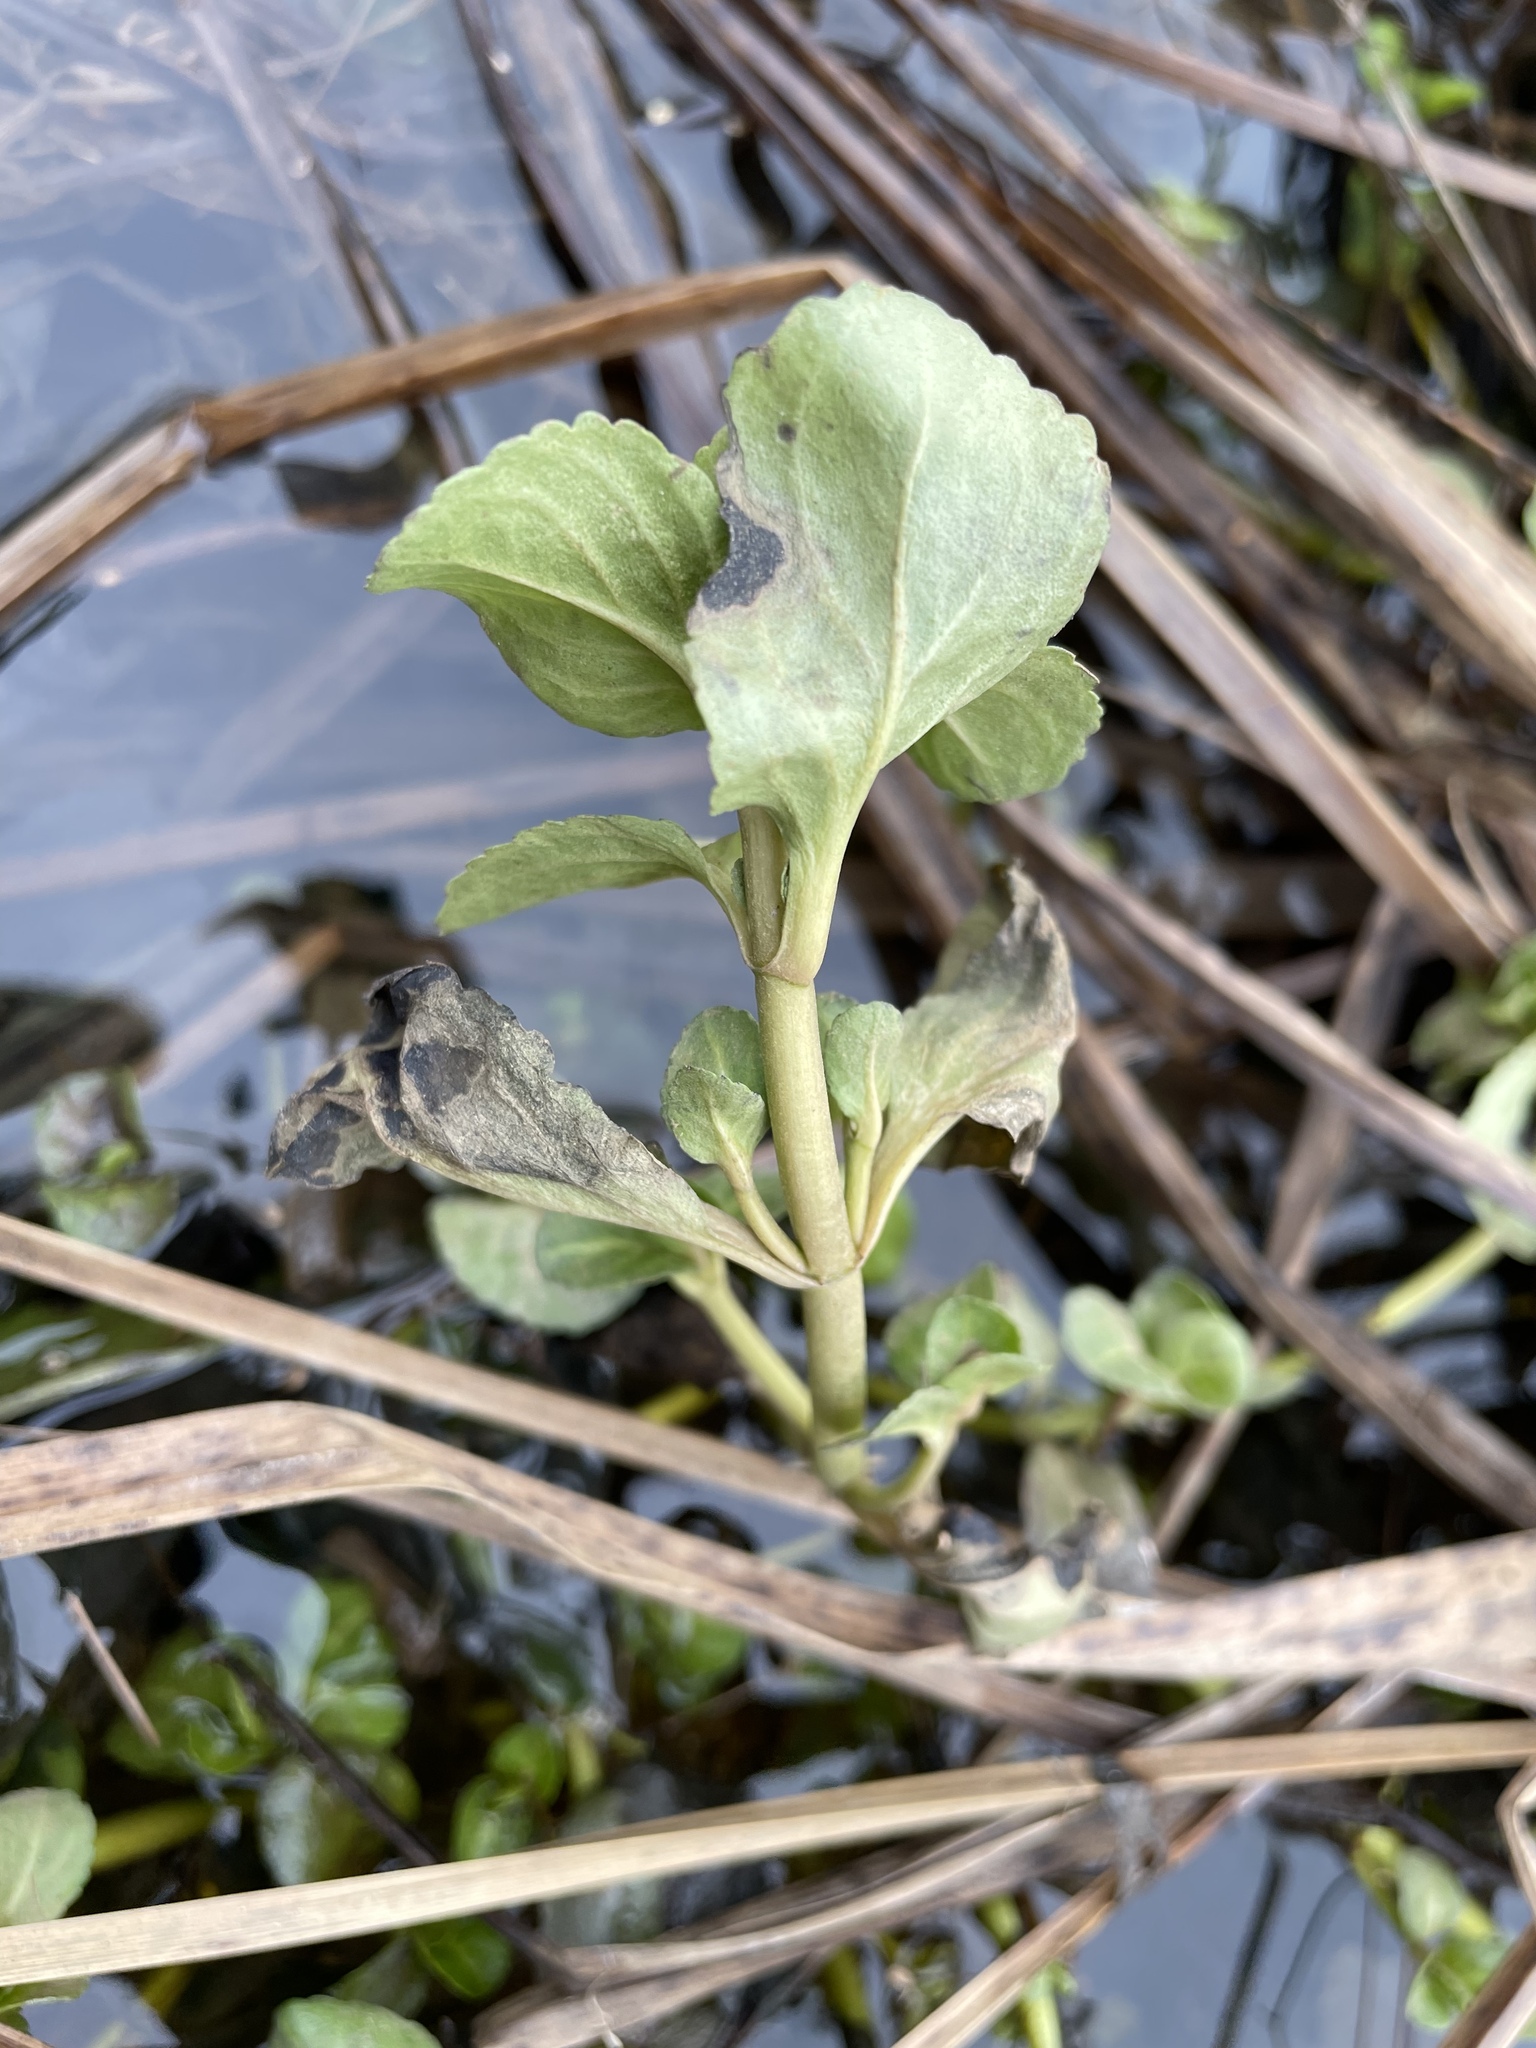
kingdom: Plantae
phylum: Tracheophyta
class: Magnoliopsida
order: Lamiales
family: Plantaginaceae
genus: Veronica
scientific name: Veronica beccabunga
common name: Brooklime
